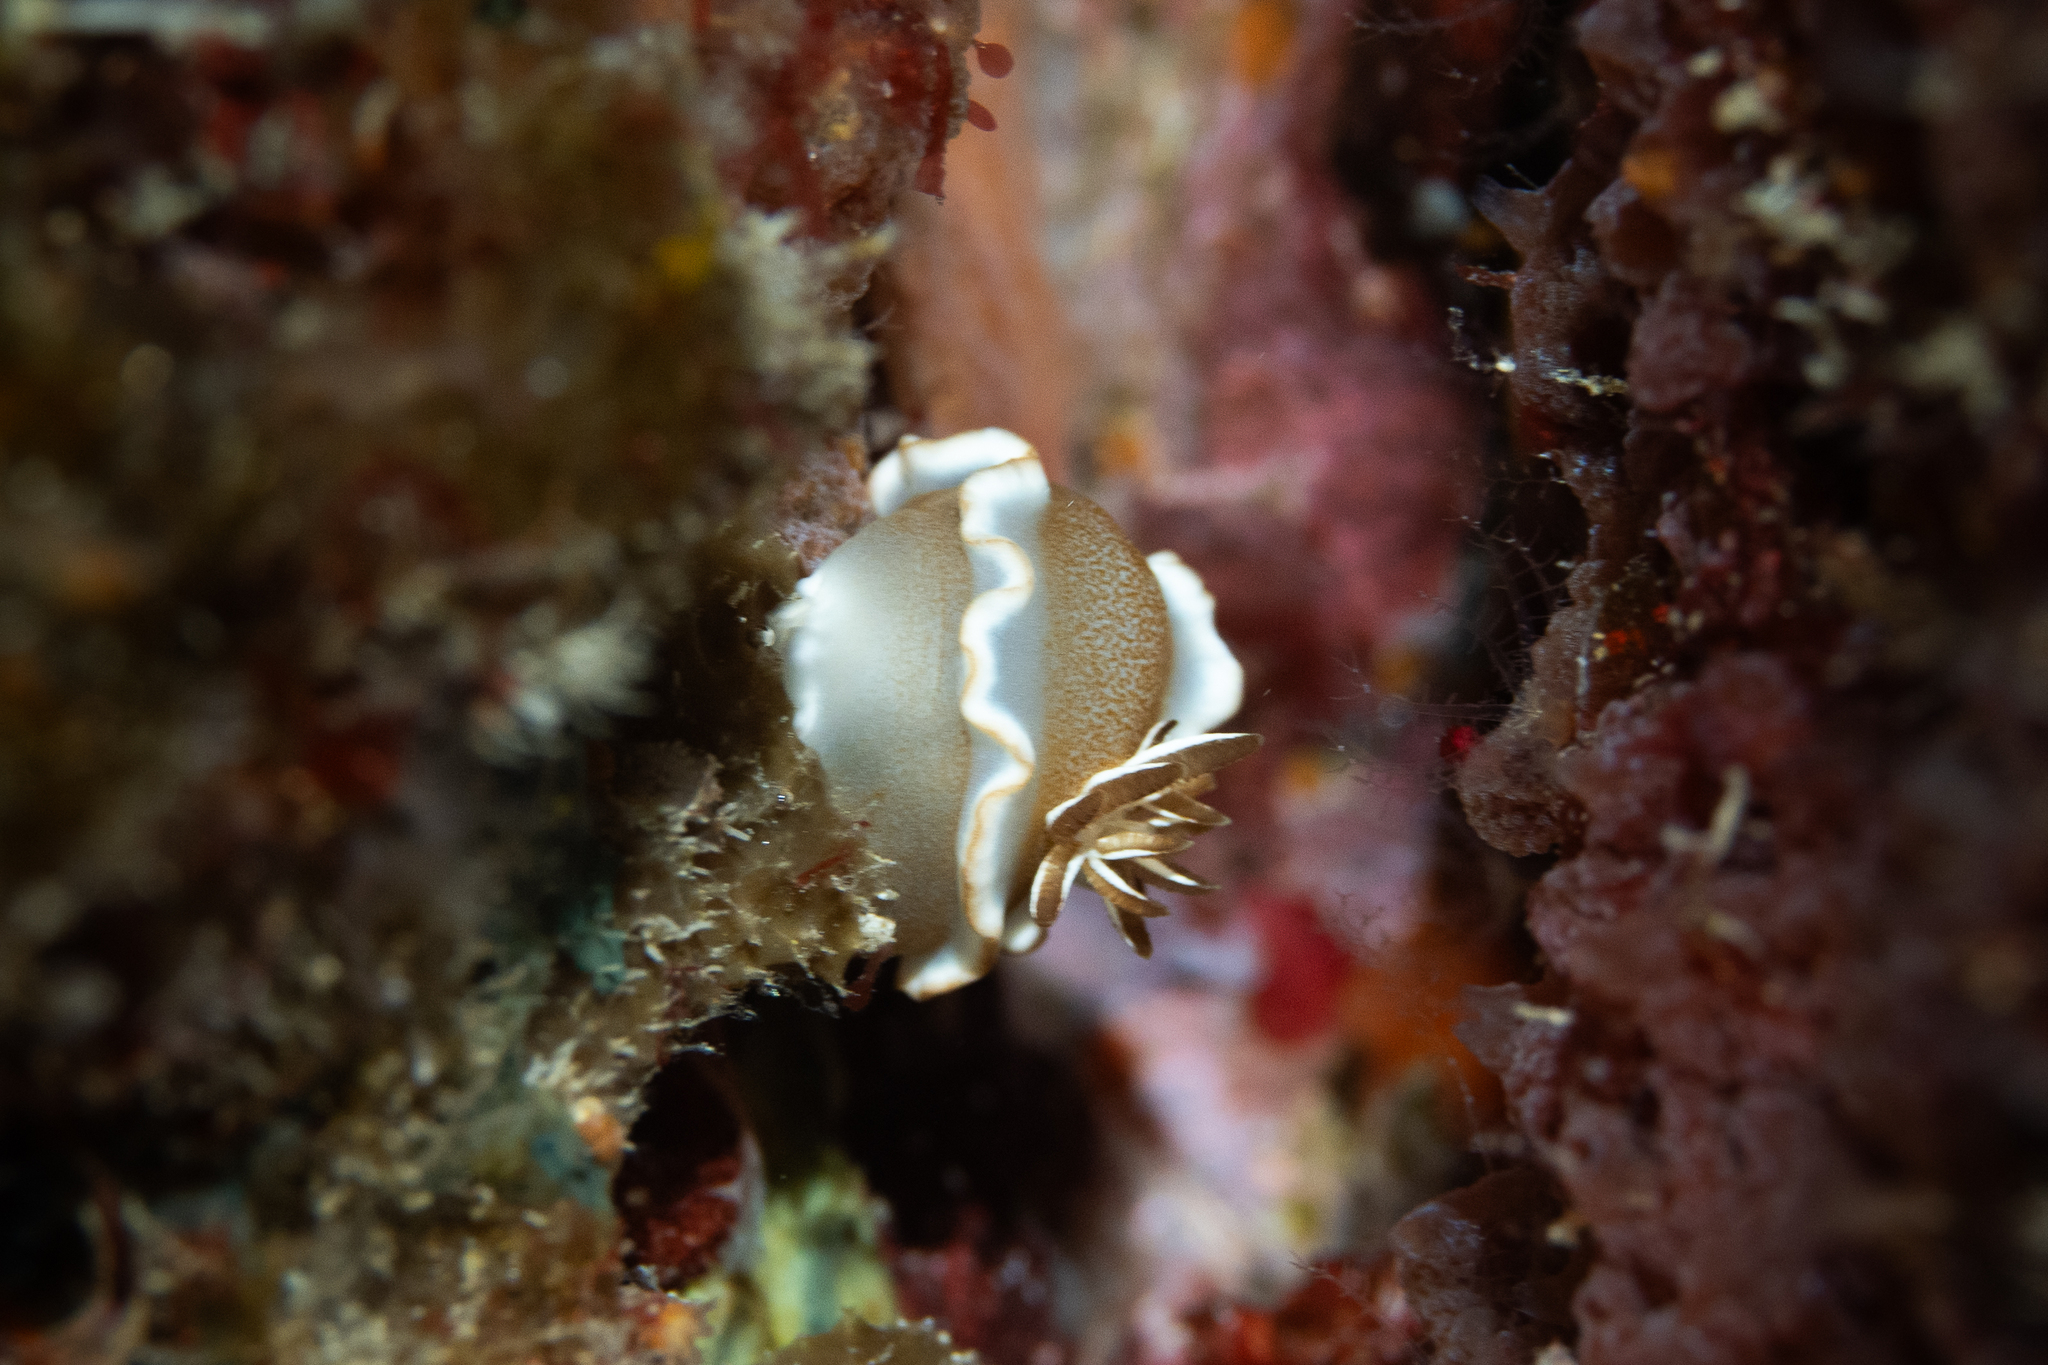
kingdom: Animalia
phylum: Mollusca
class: Gastropoda
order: Nudibranchia
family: Chromodorididae
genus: Glossodoris
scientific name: Glossodoris rufomarginata
